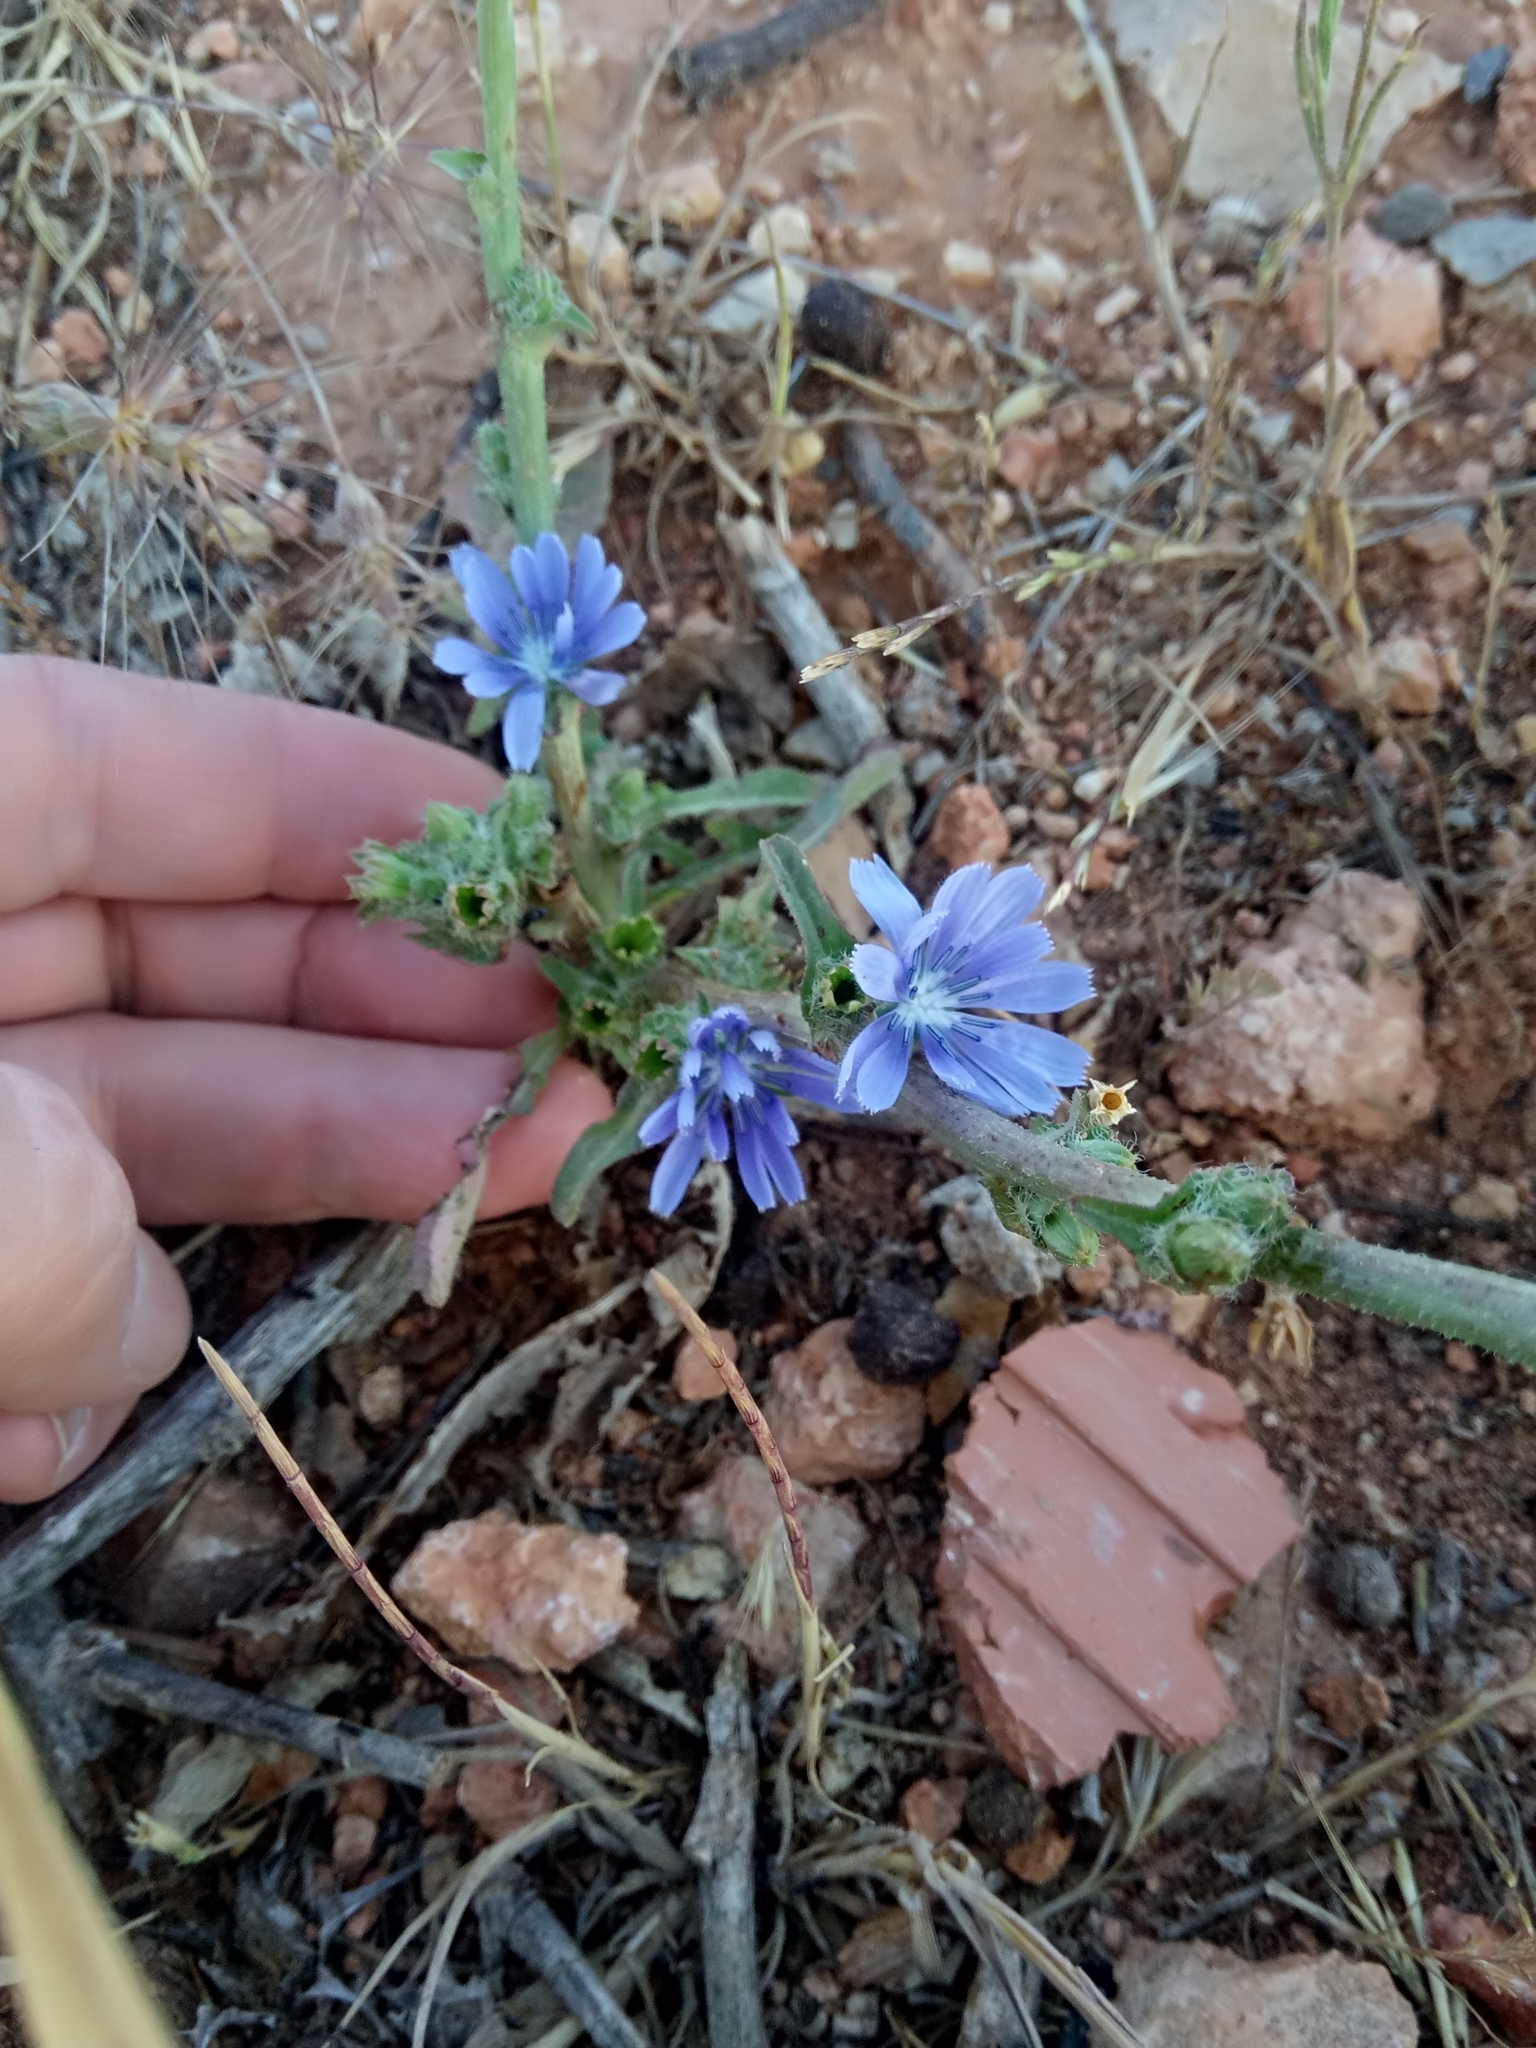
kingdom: Plantae
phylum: Tracheophyta
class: Magnoliopsida
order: Asterales
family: Asteraceae
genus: Cichorium
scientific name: Cichorium intybus
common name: Chicory
